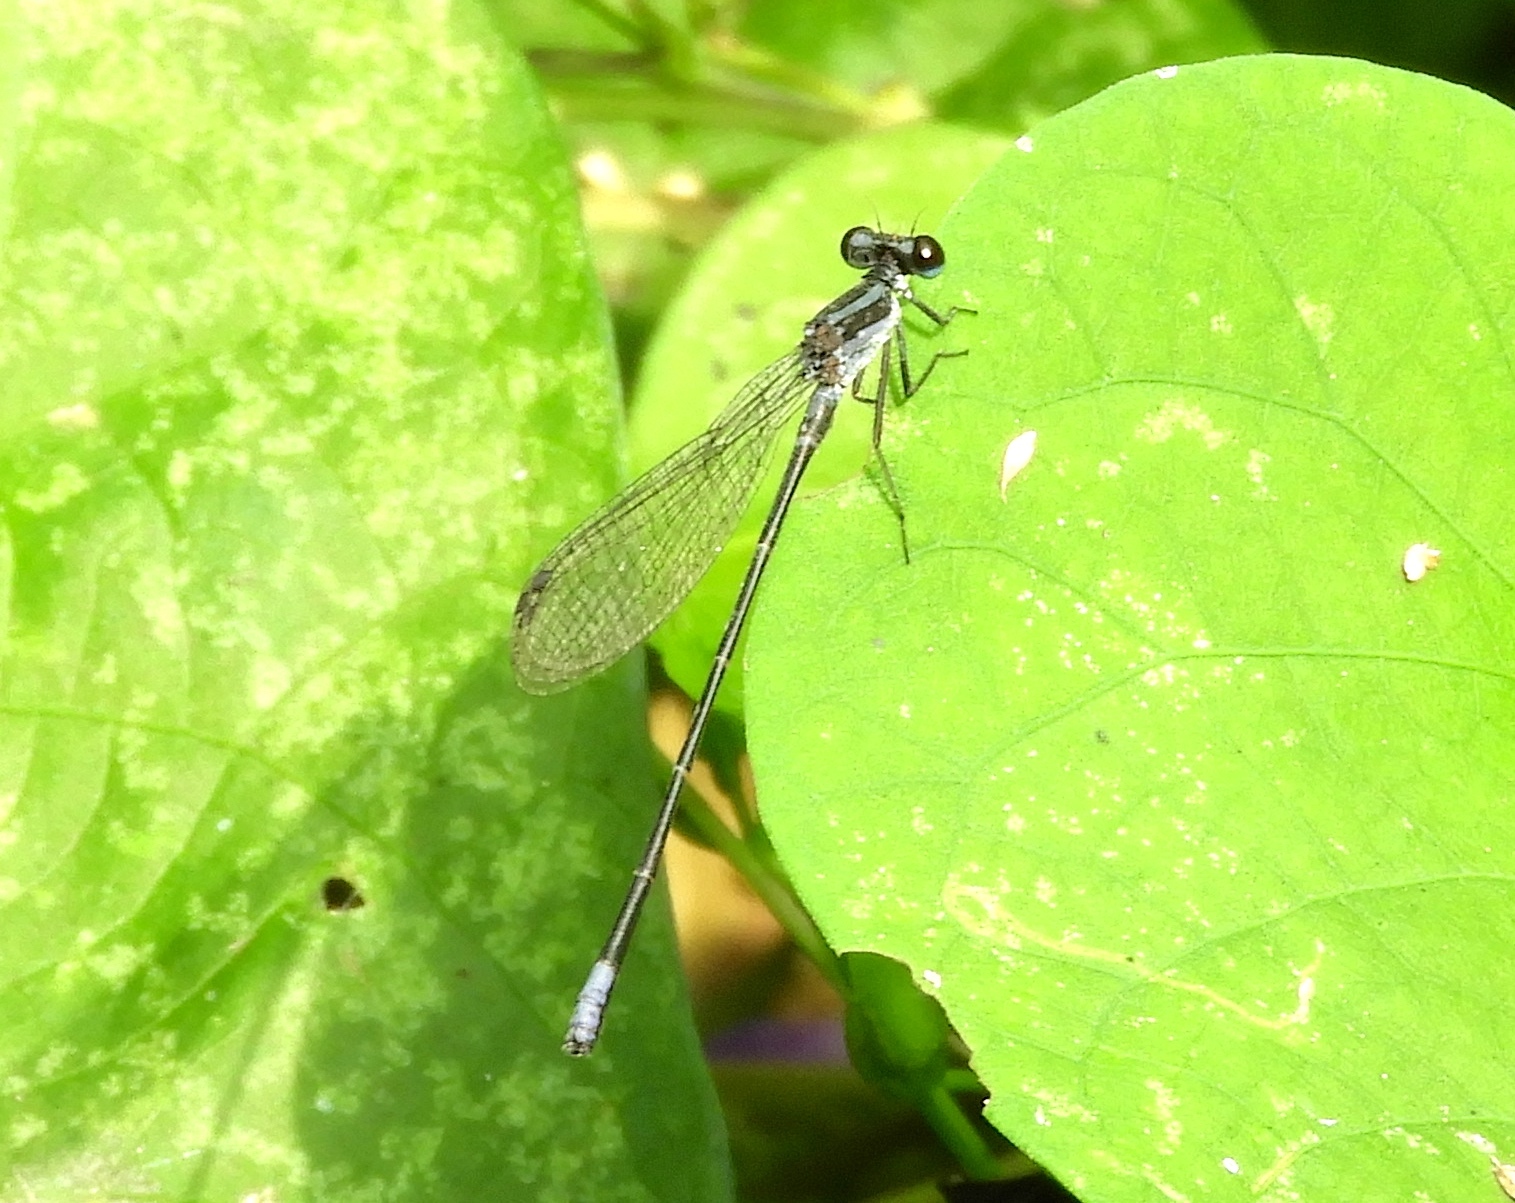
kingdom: Animalia
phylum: Arthropoda
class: Insecta
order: Odonata
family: Coenagrionidae
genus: Argia
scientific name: Argia pulla
